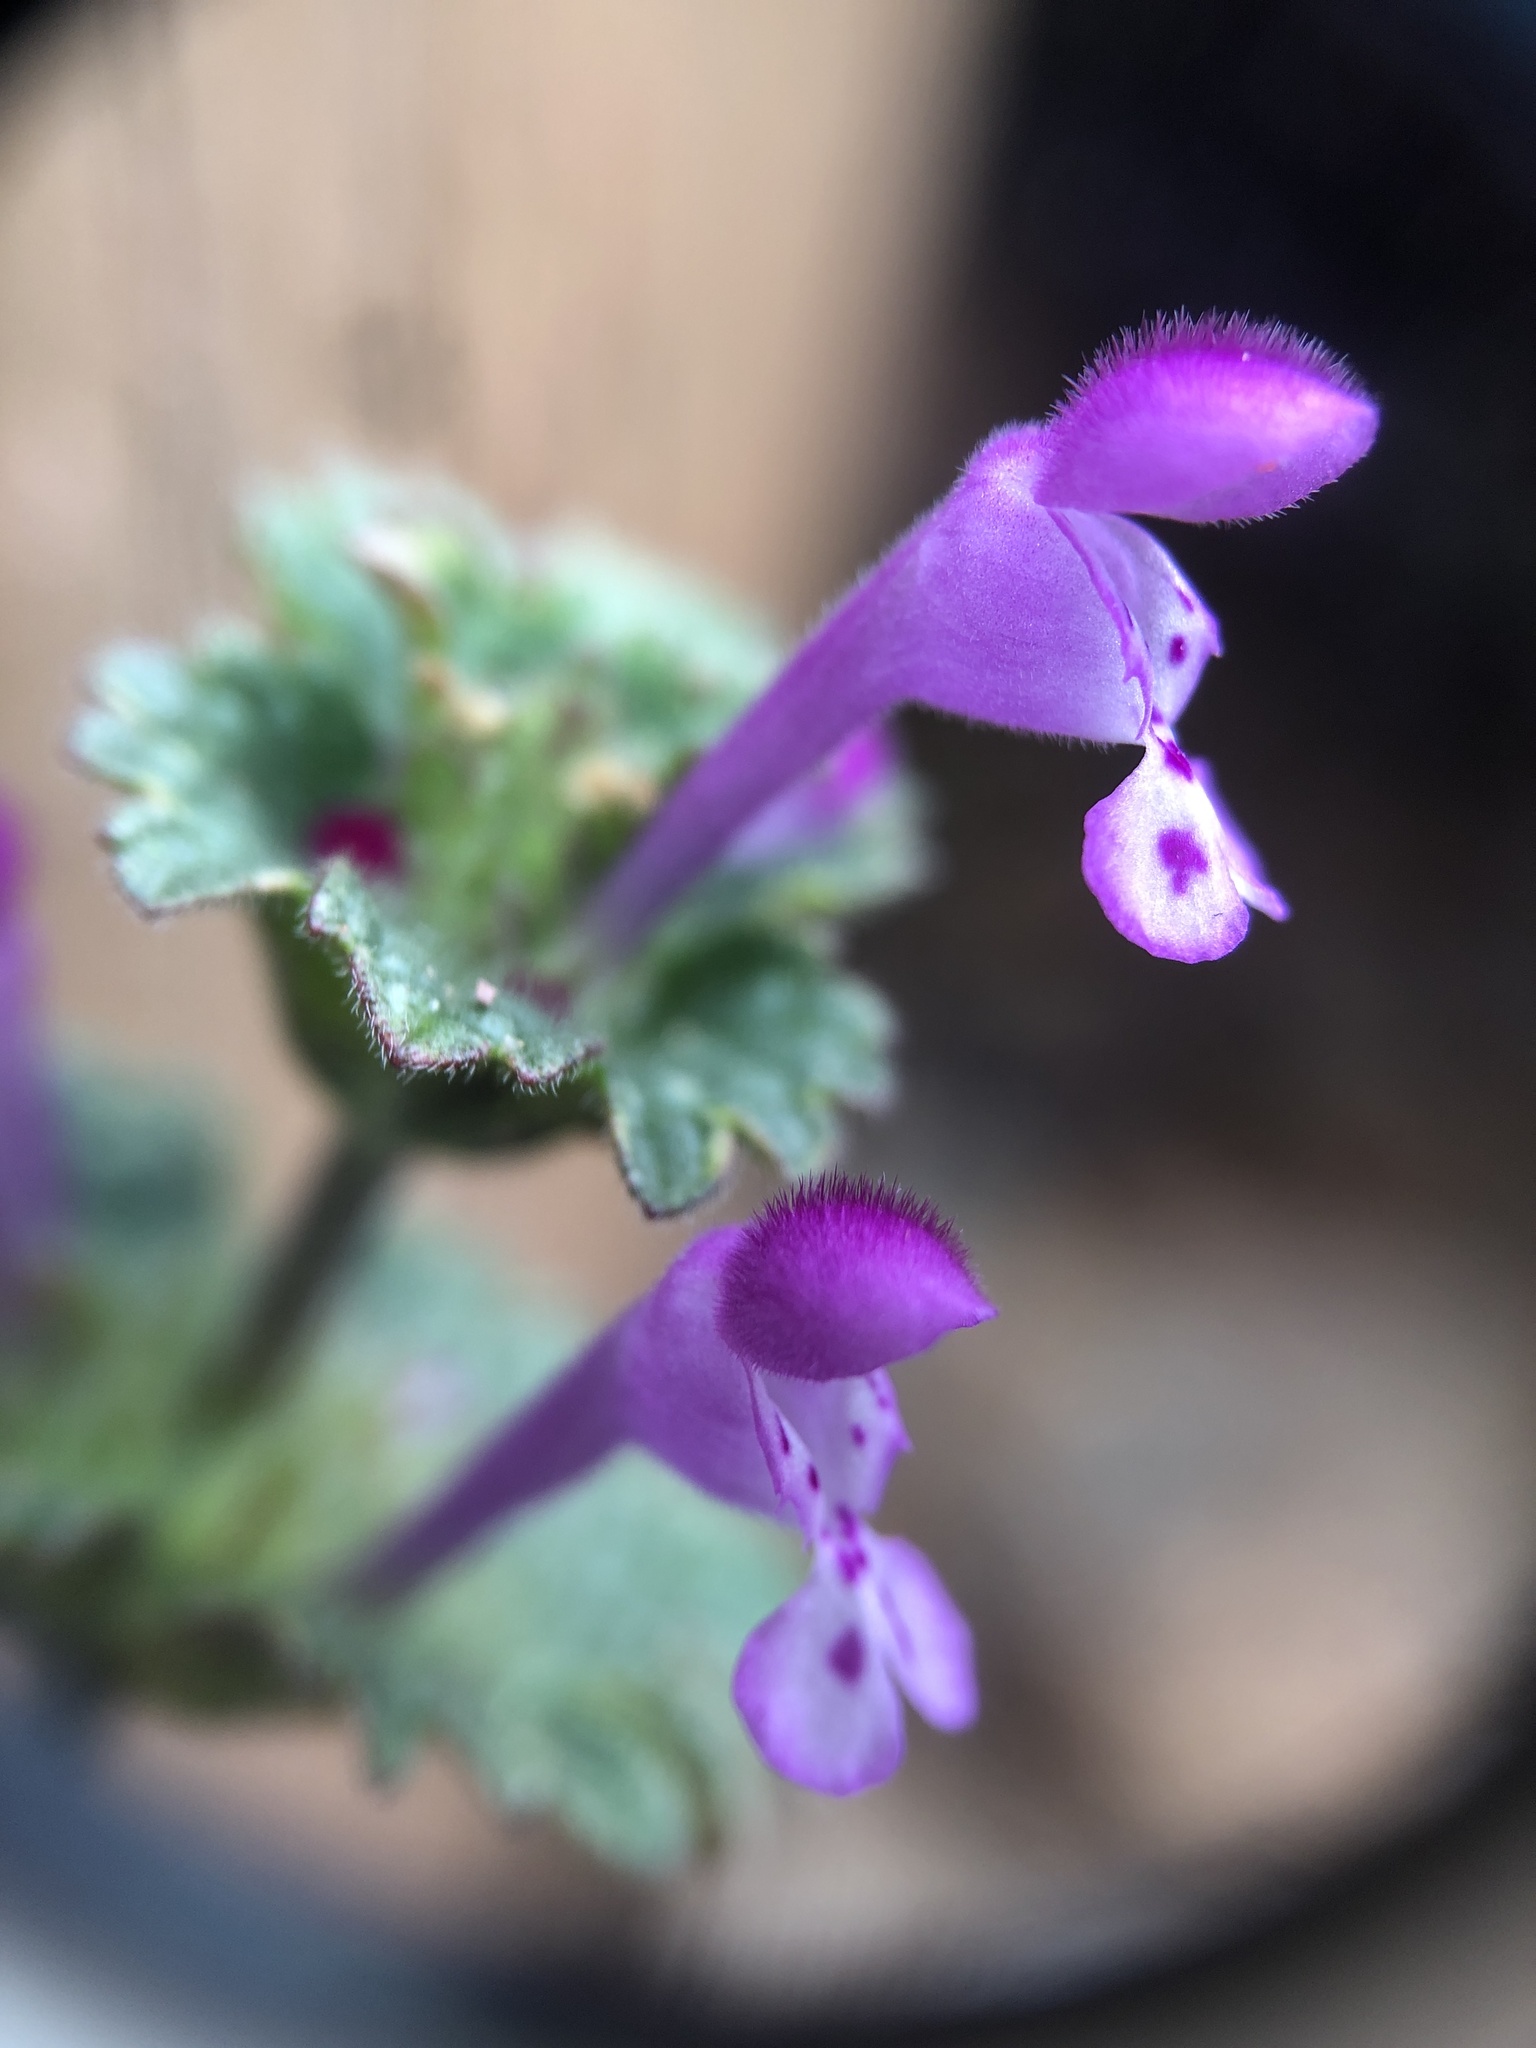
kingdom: Plantae
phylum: Tracheophyta
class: Magnoliopsida
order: Lamiales
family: Lamiaceae
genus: Lamium
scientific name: Lamium amplexicaule
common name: Henbit dead-nettle
